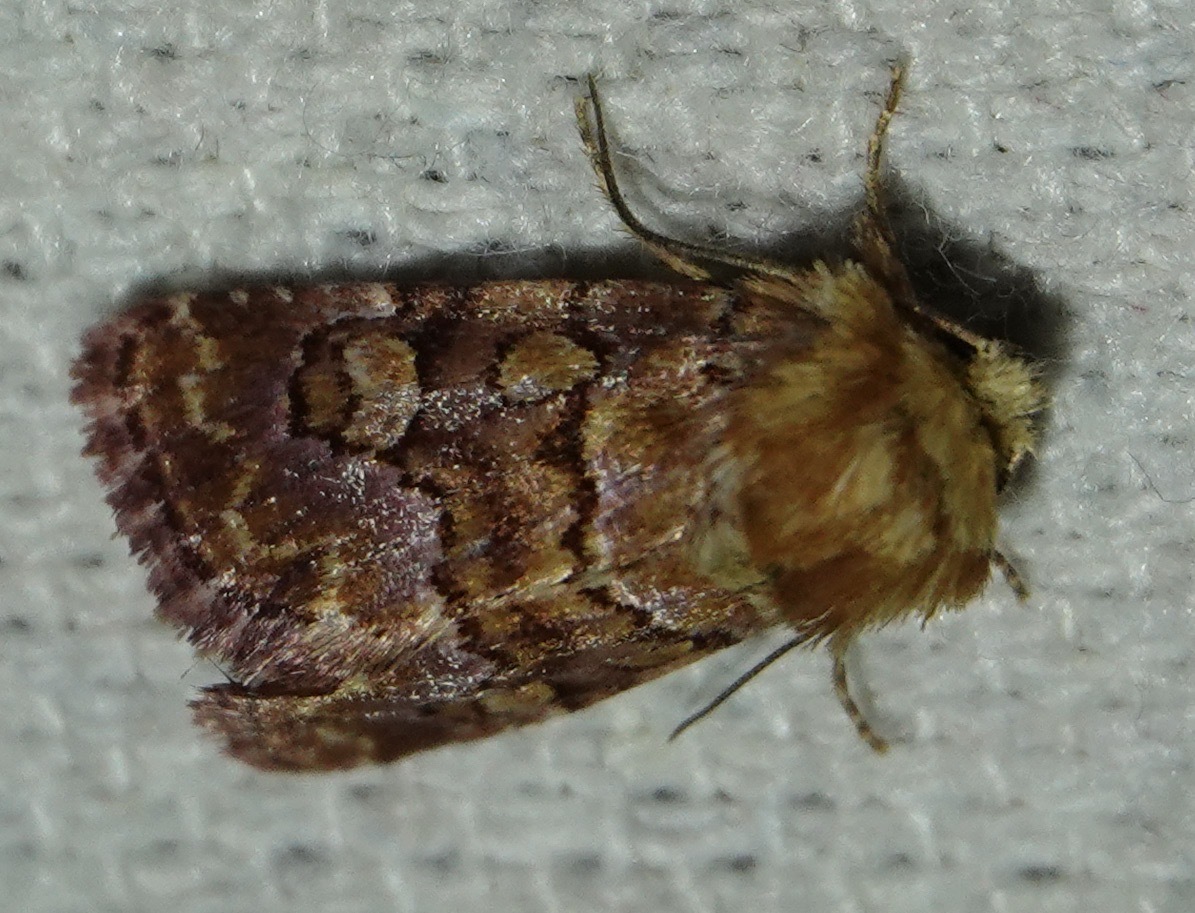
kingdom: Animalia
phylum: Arthropoda
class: Insecta
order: Lepidoptera
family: Noctuidae
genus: Euros
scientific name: Euros proprius
